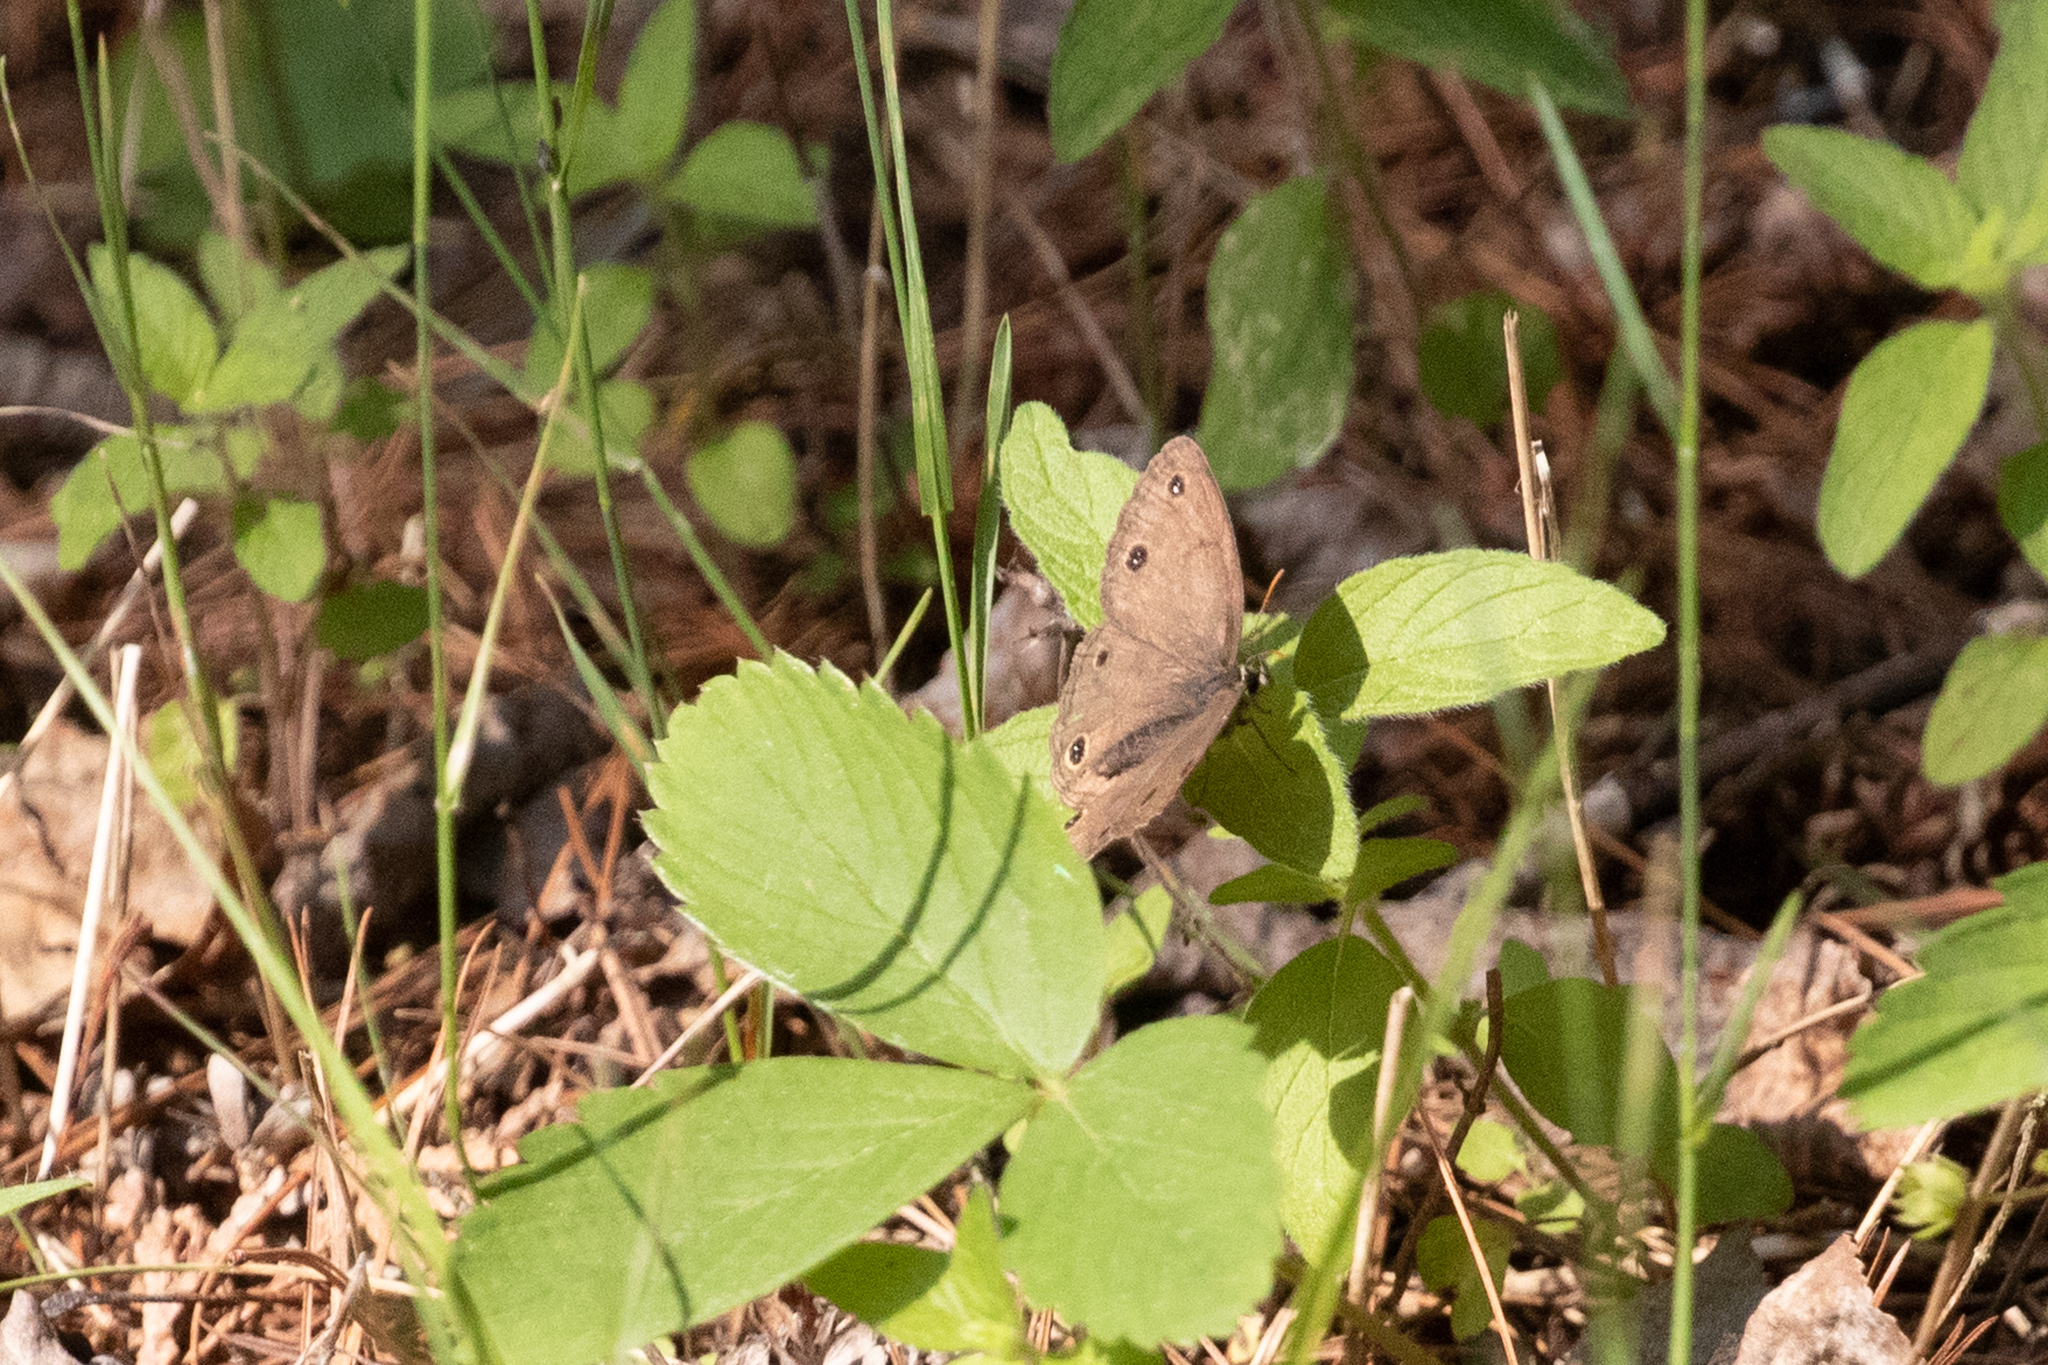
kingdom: Animalia
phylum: Arthropoda
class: Insecta
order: Lepidoptera
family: Nymphalidae
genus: Euptychia
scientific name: Euptychia cymela
